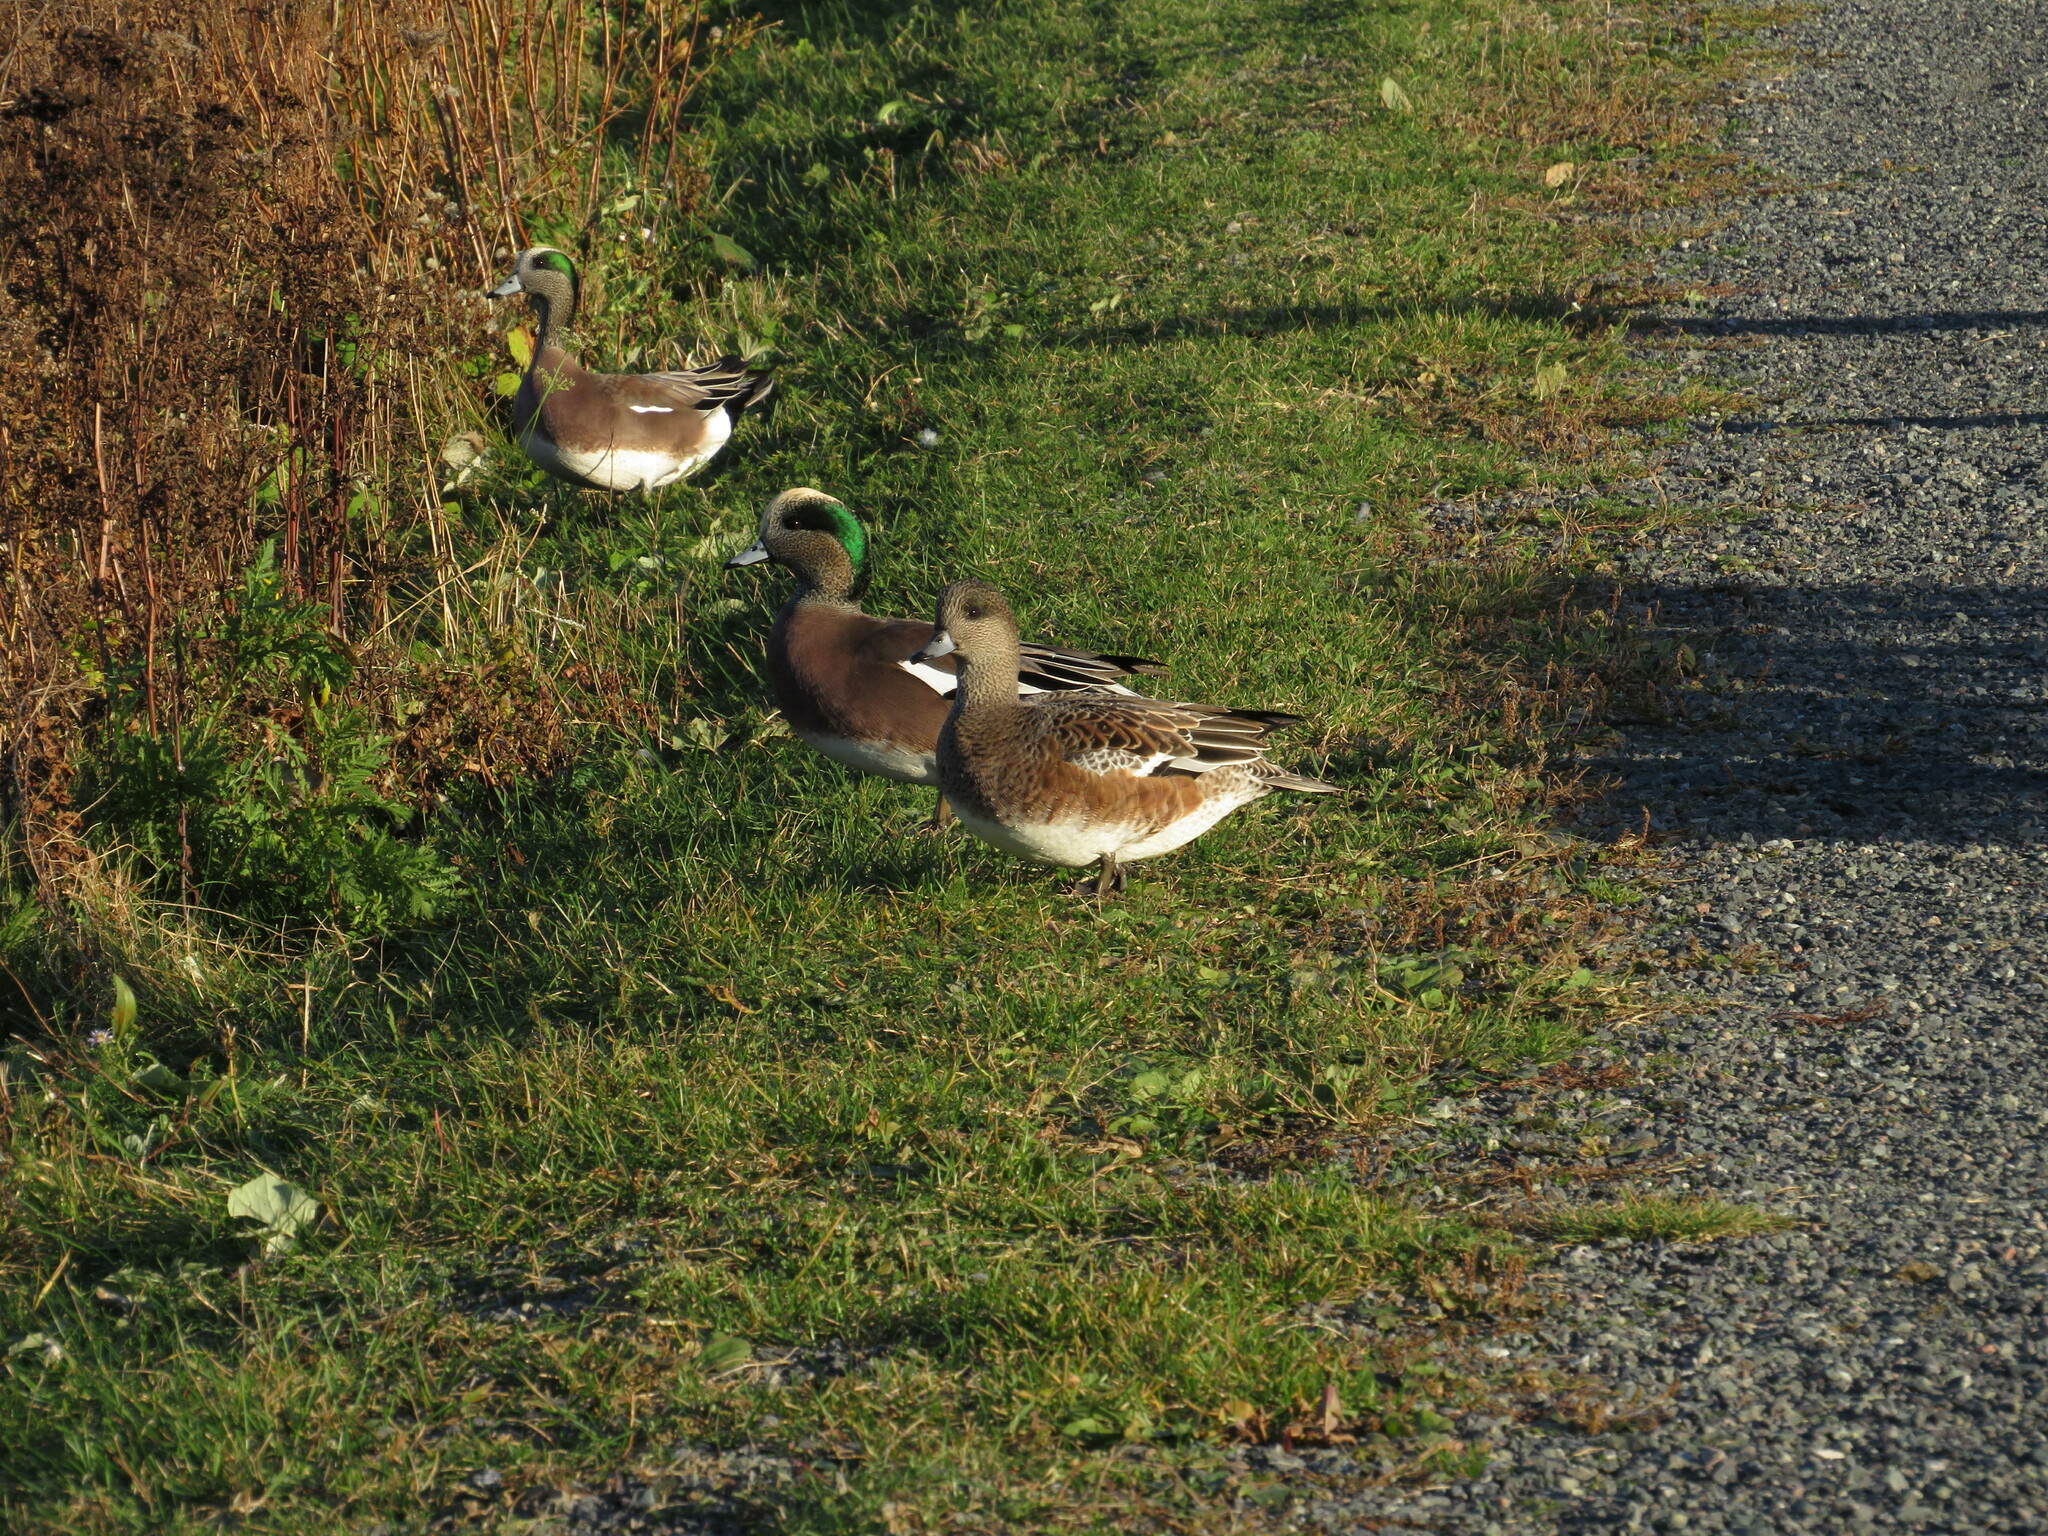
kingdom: Animalia
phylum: Chordata
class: Aves
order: Anseriformes
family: Anatidae
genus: Mareca
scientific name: Mareca americana
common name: American wigeon
